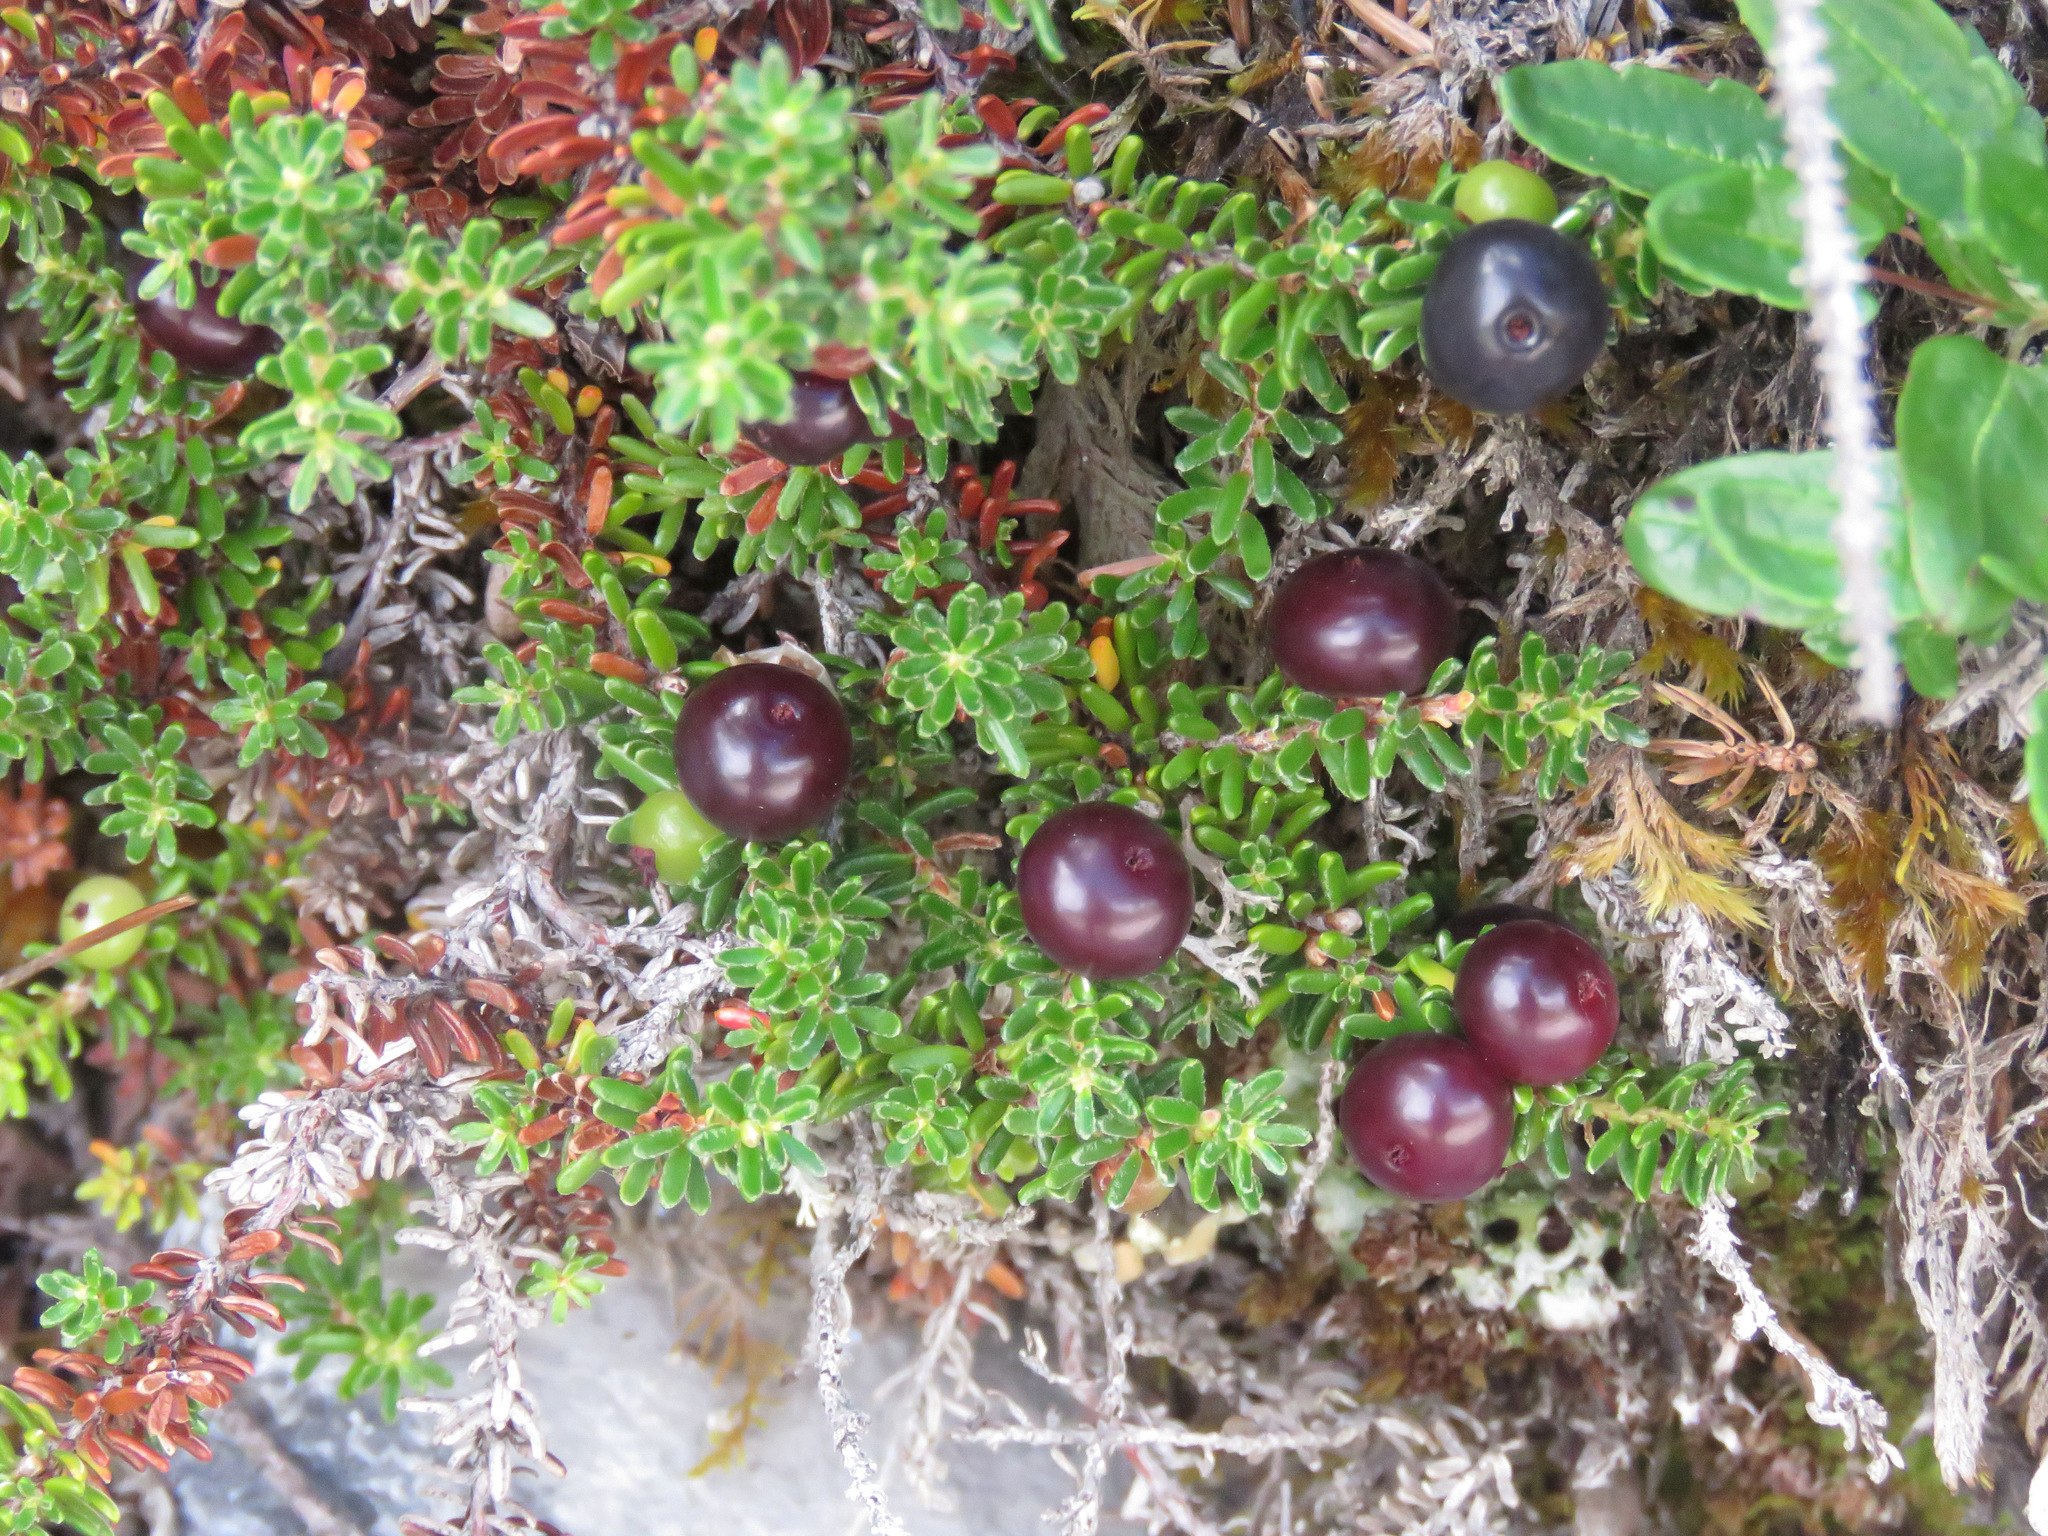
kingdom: Plantae
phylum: Tracheophyta
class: Magnoliopsida
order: Ericales
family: Ericaceae
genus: Empetrum
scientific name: Empetrum nigrum
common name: Black crowberry
